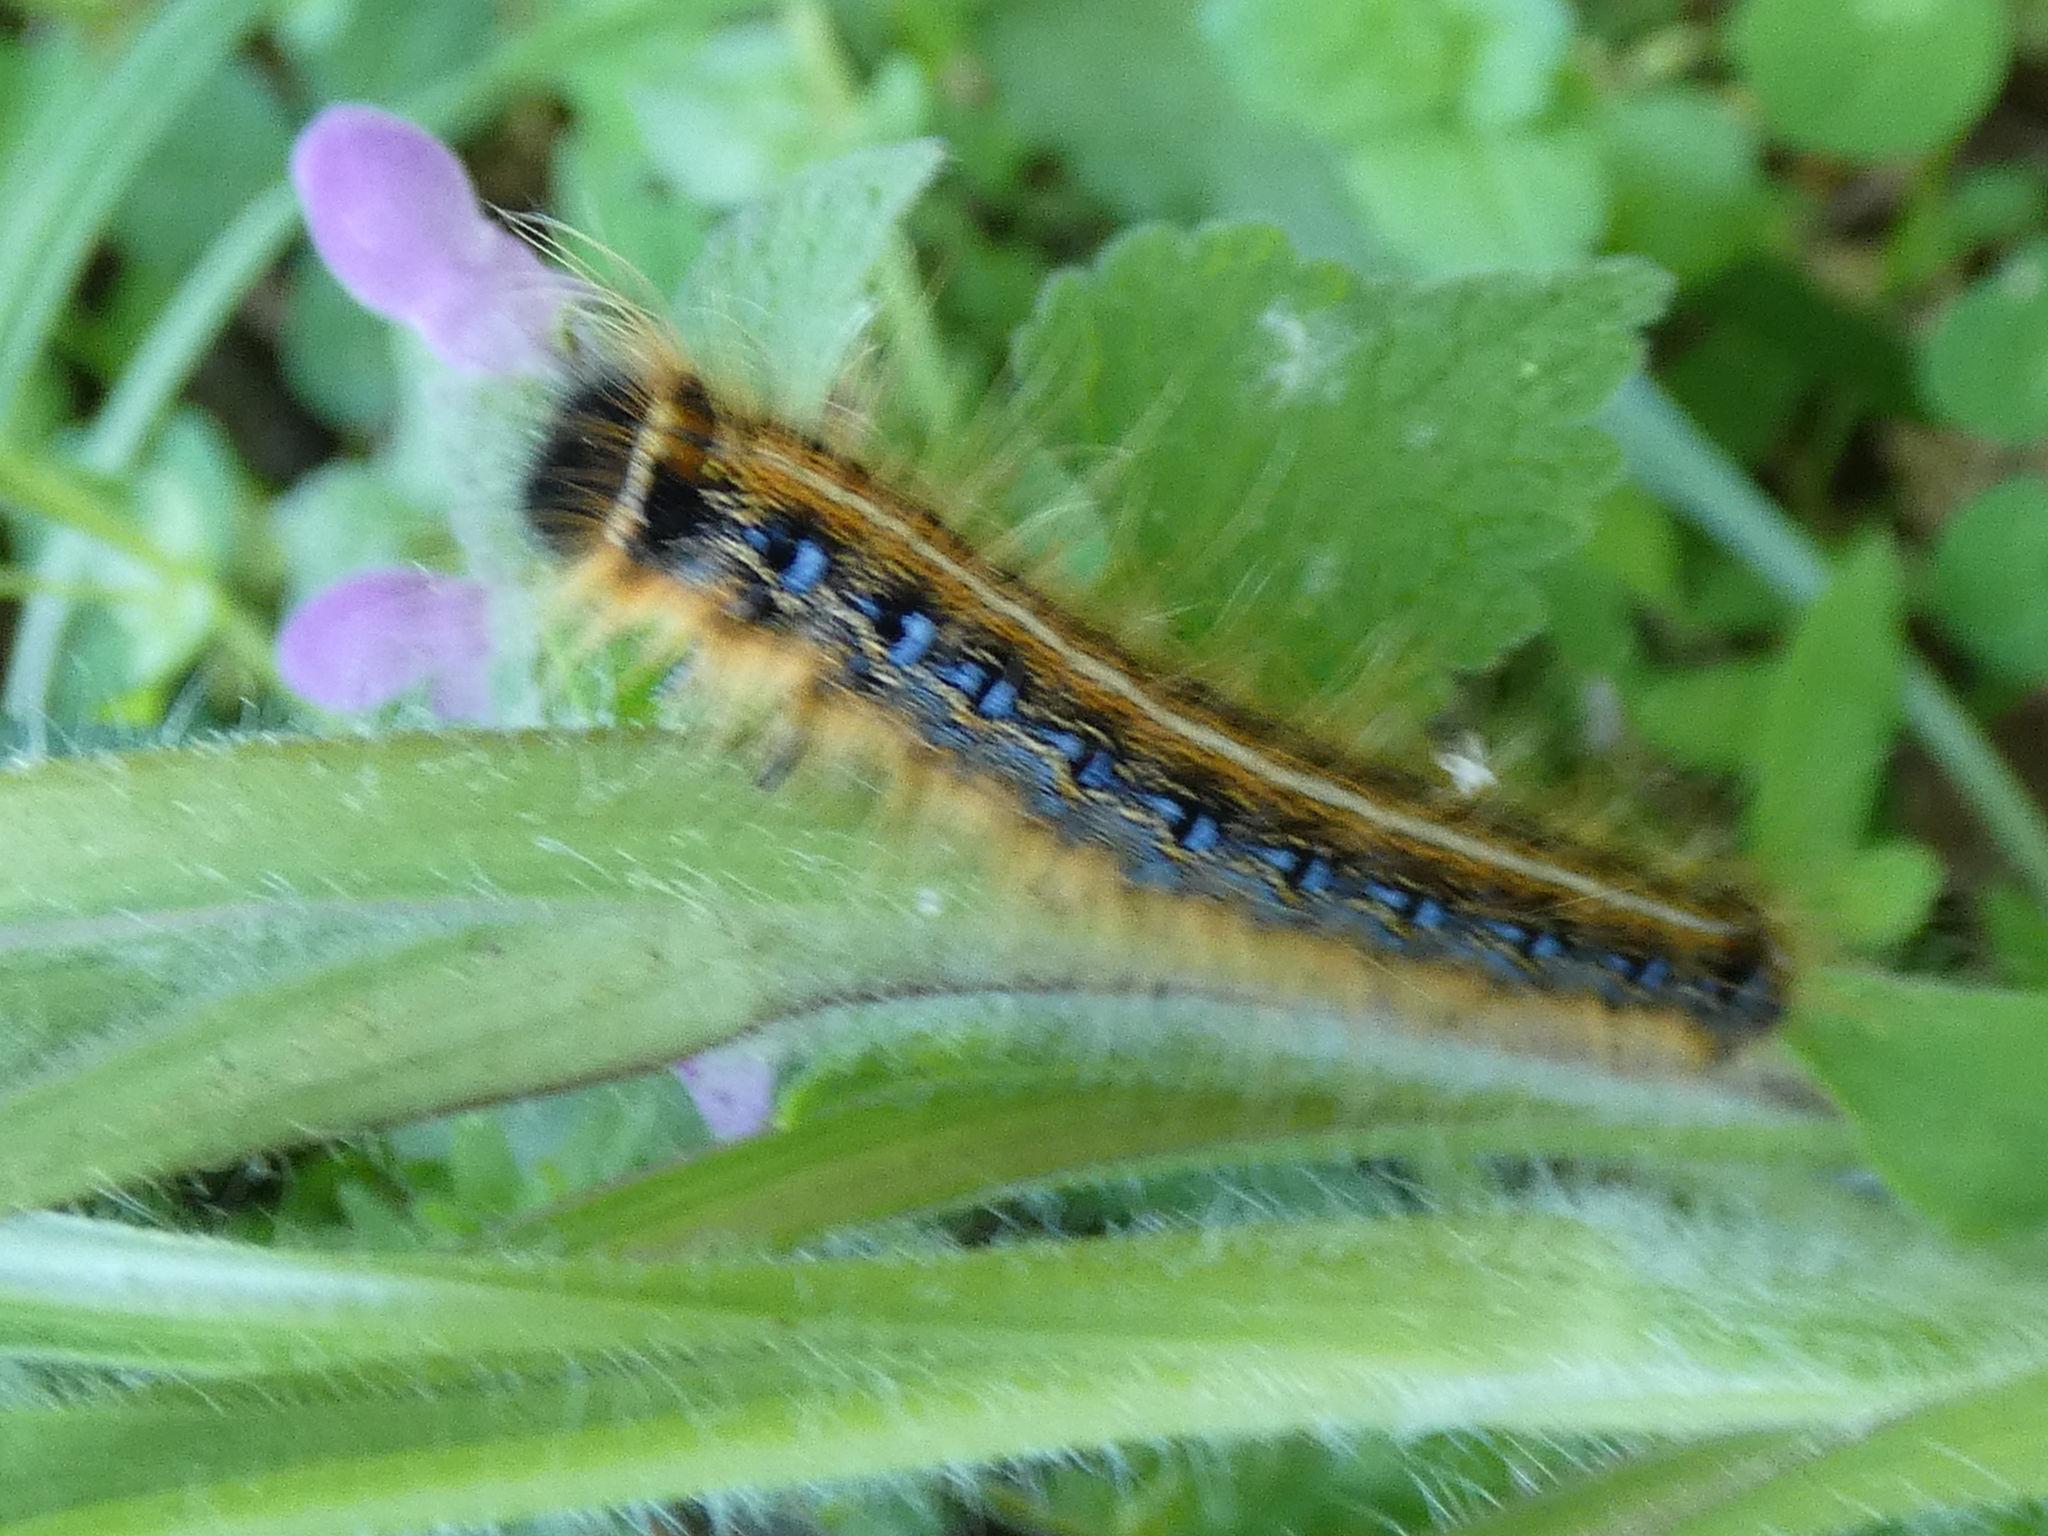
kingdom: Animalia
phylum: Arthropoda
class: Insecta
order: Lepidoptera
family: Lasiocampidae
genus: Malacosoma
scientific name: Malacosoma americana
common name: Eastern tent caterpillar moth
